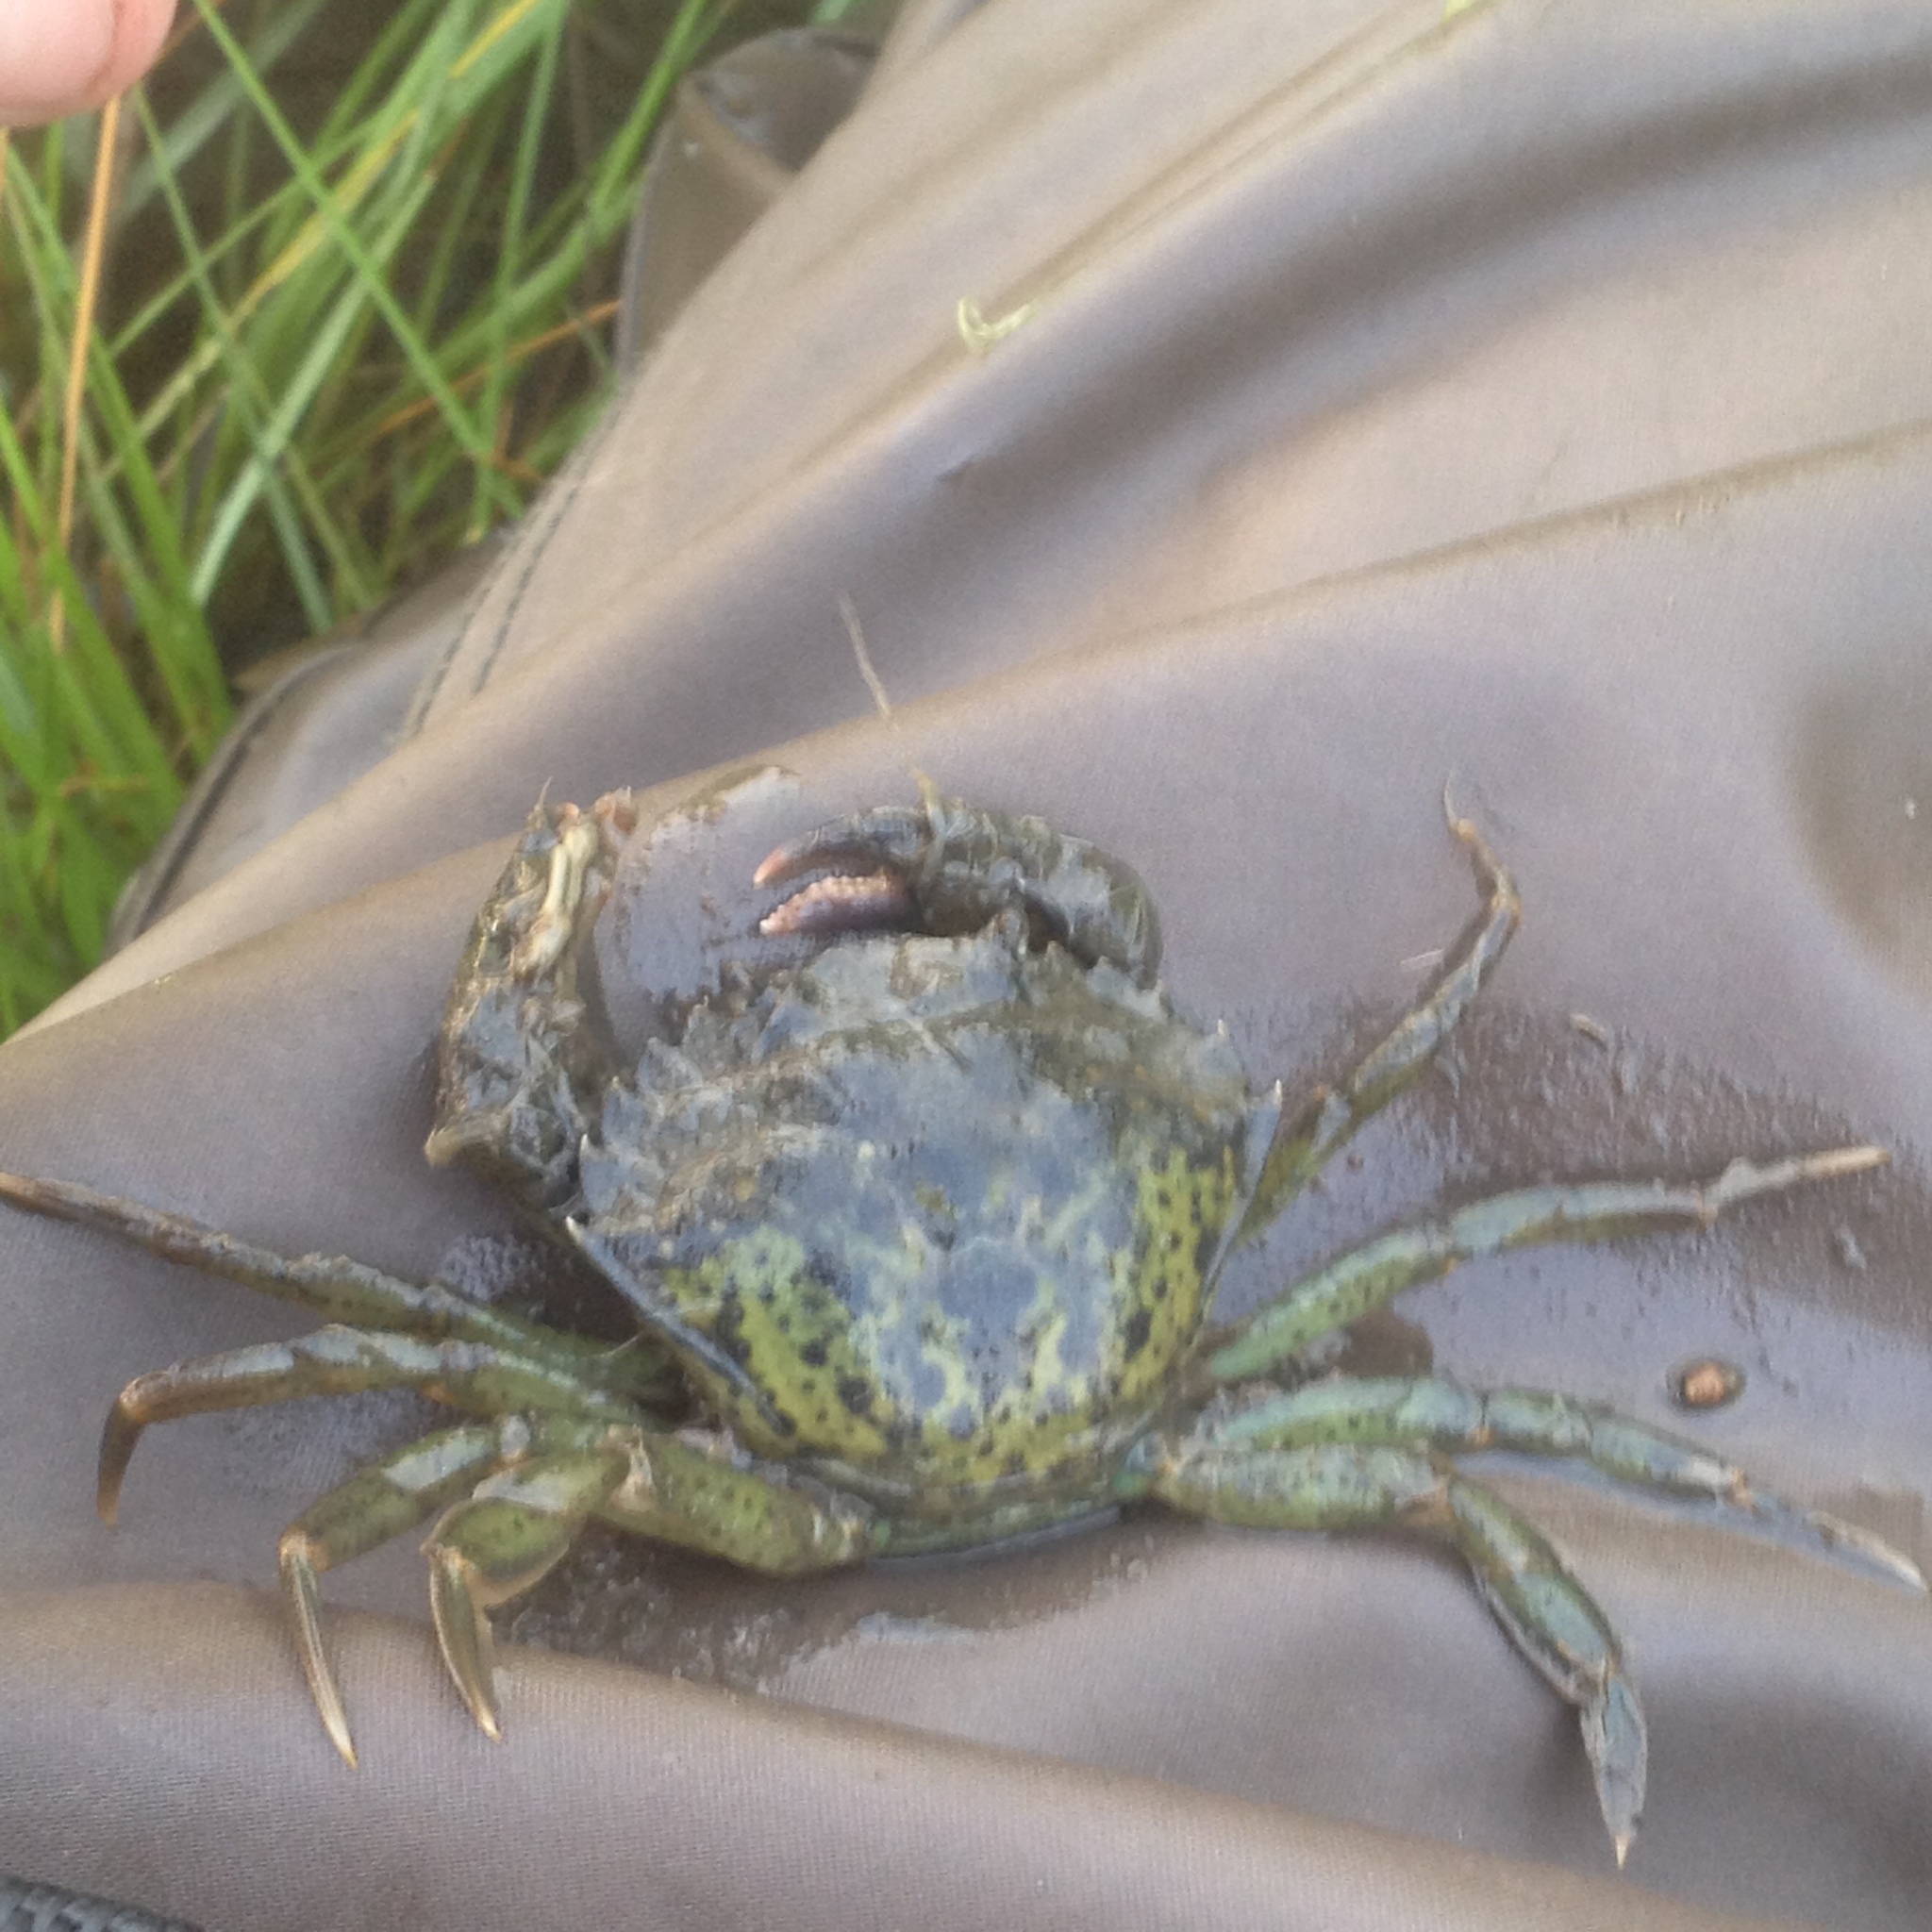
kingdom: Animalia
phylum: Arthropoda
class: Malacostraca
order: Decapoda
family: Carcinidae
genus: Carcinus
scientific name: Carcinus maenas
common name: European green crab
